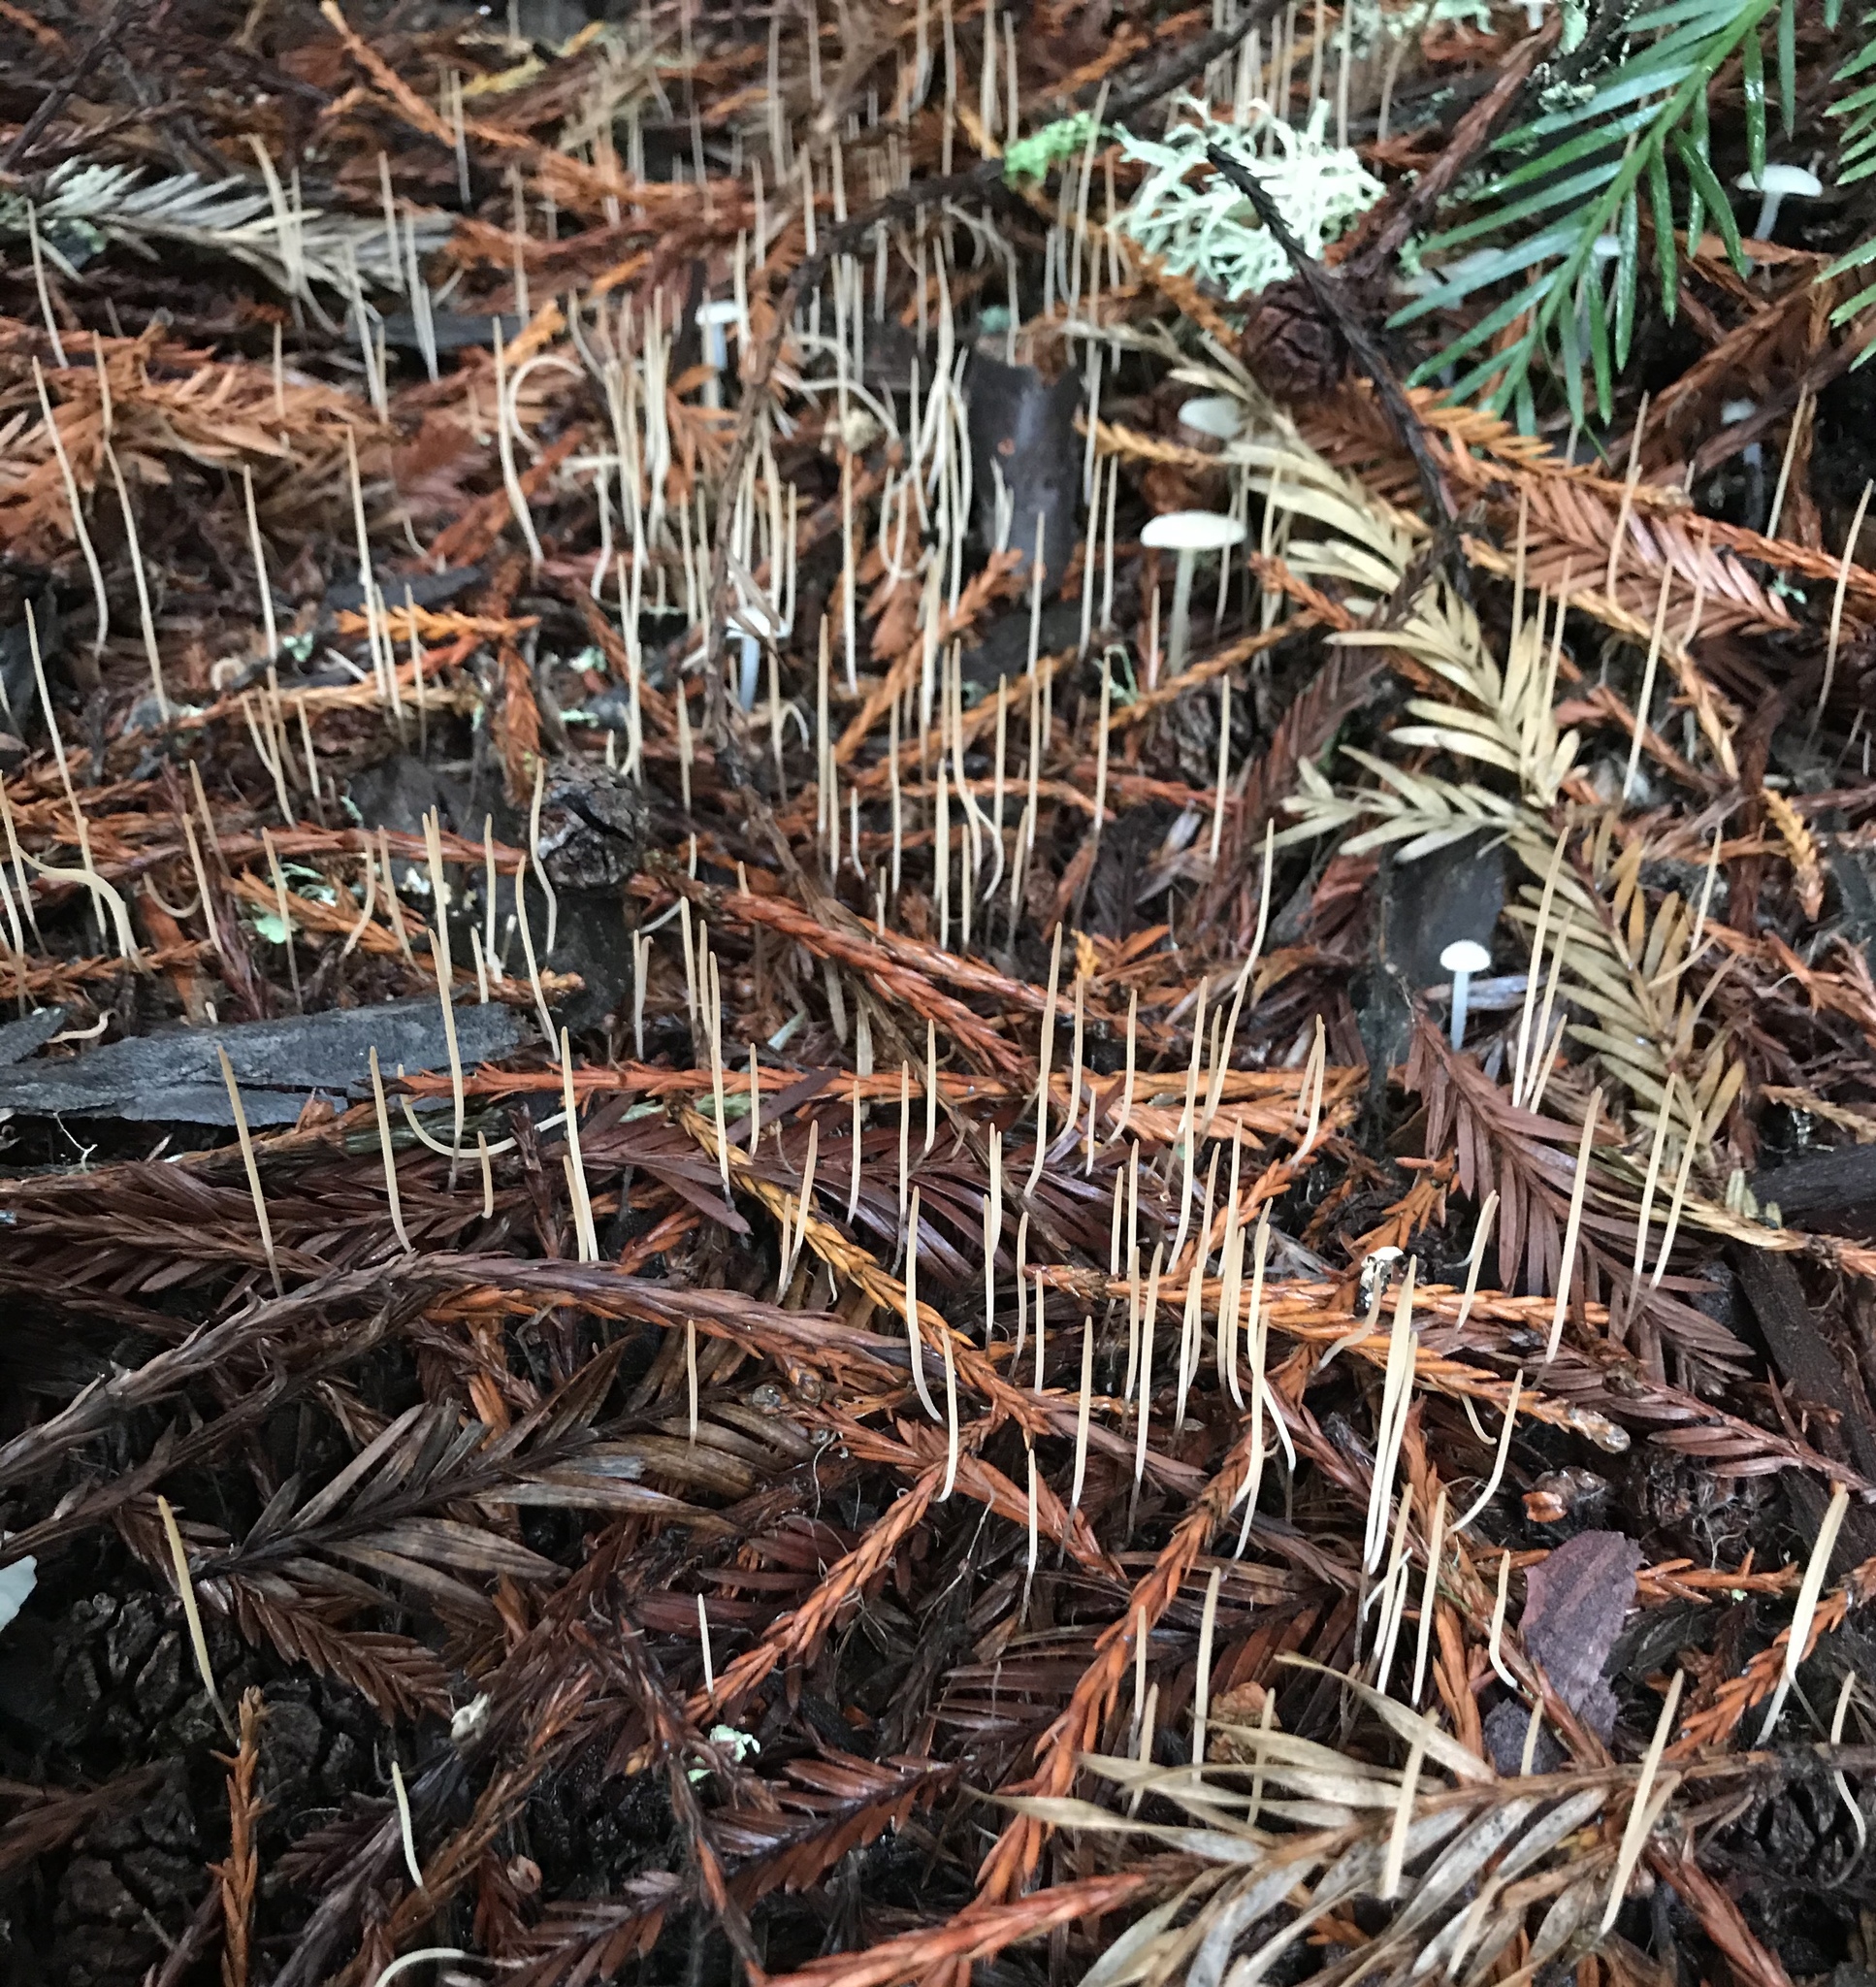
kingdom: Fungi
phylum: Basidiomycota
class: Agaricomycetes
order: Agaricales
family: Typhulaceae
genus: Typhula
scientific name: Typhula juncea
